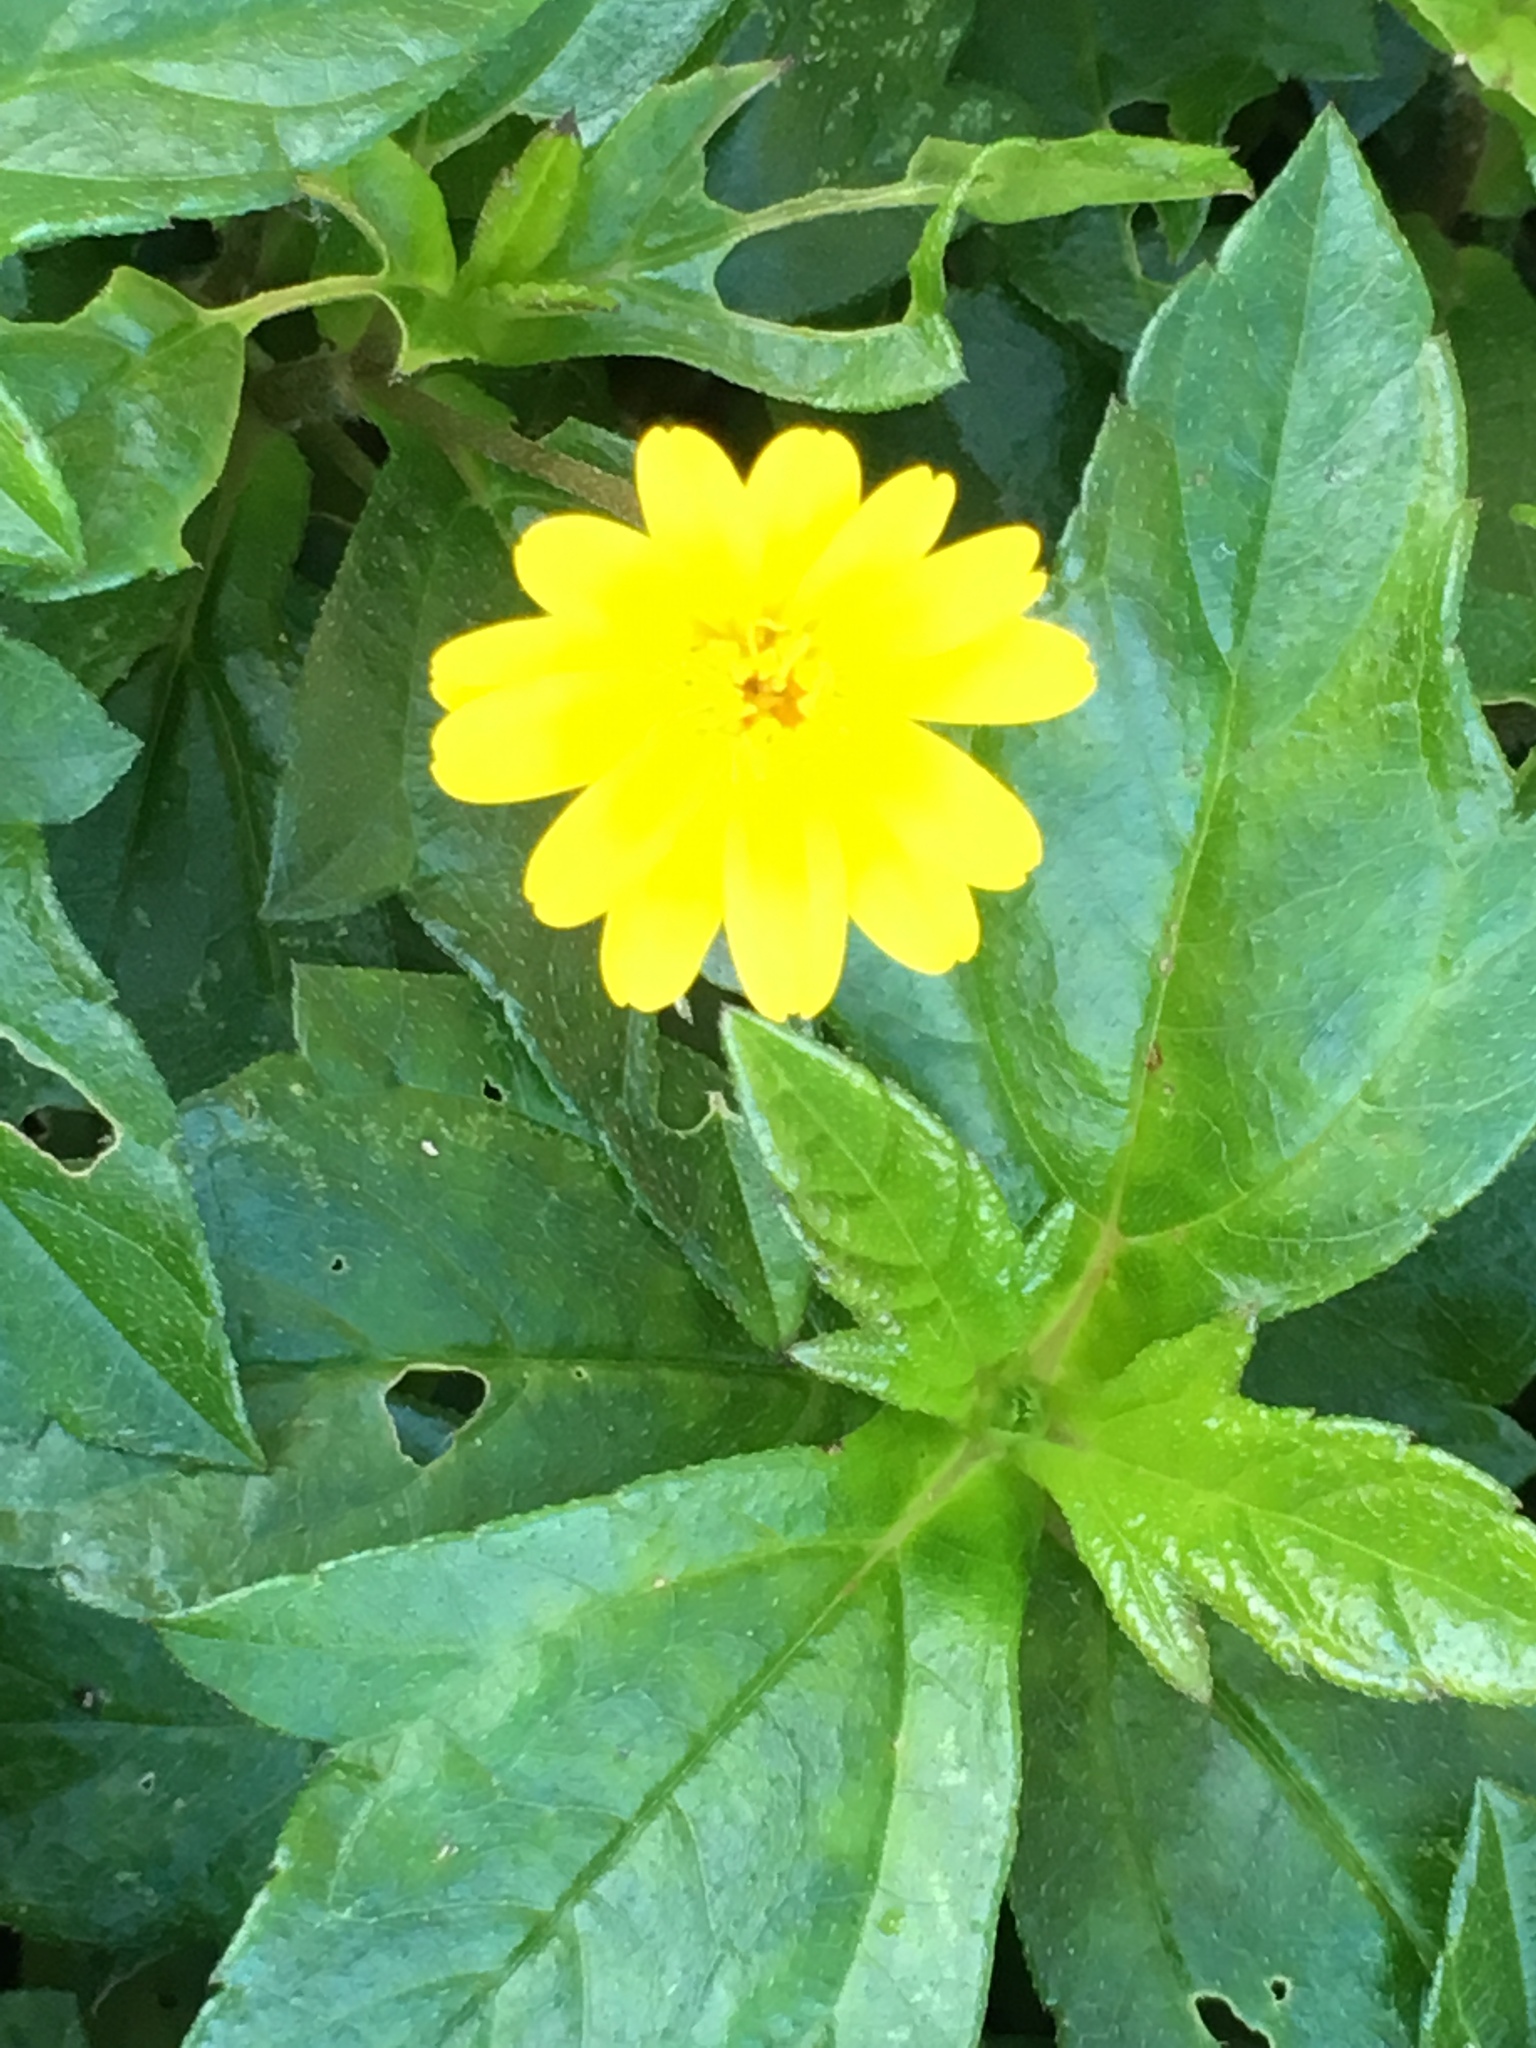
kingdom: Plantae
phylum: Tracheophyta
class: Magnoliopsida
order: Asterales
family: Asteraceae
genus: Sphagneticola
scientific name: Sphagneticola trilobata
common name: Bay biscayne creeping-oxeye
